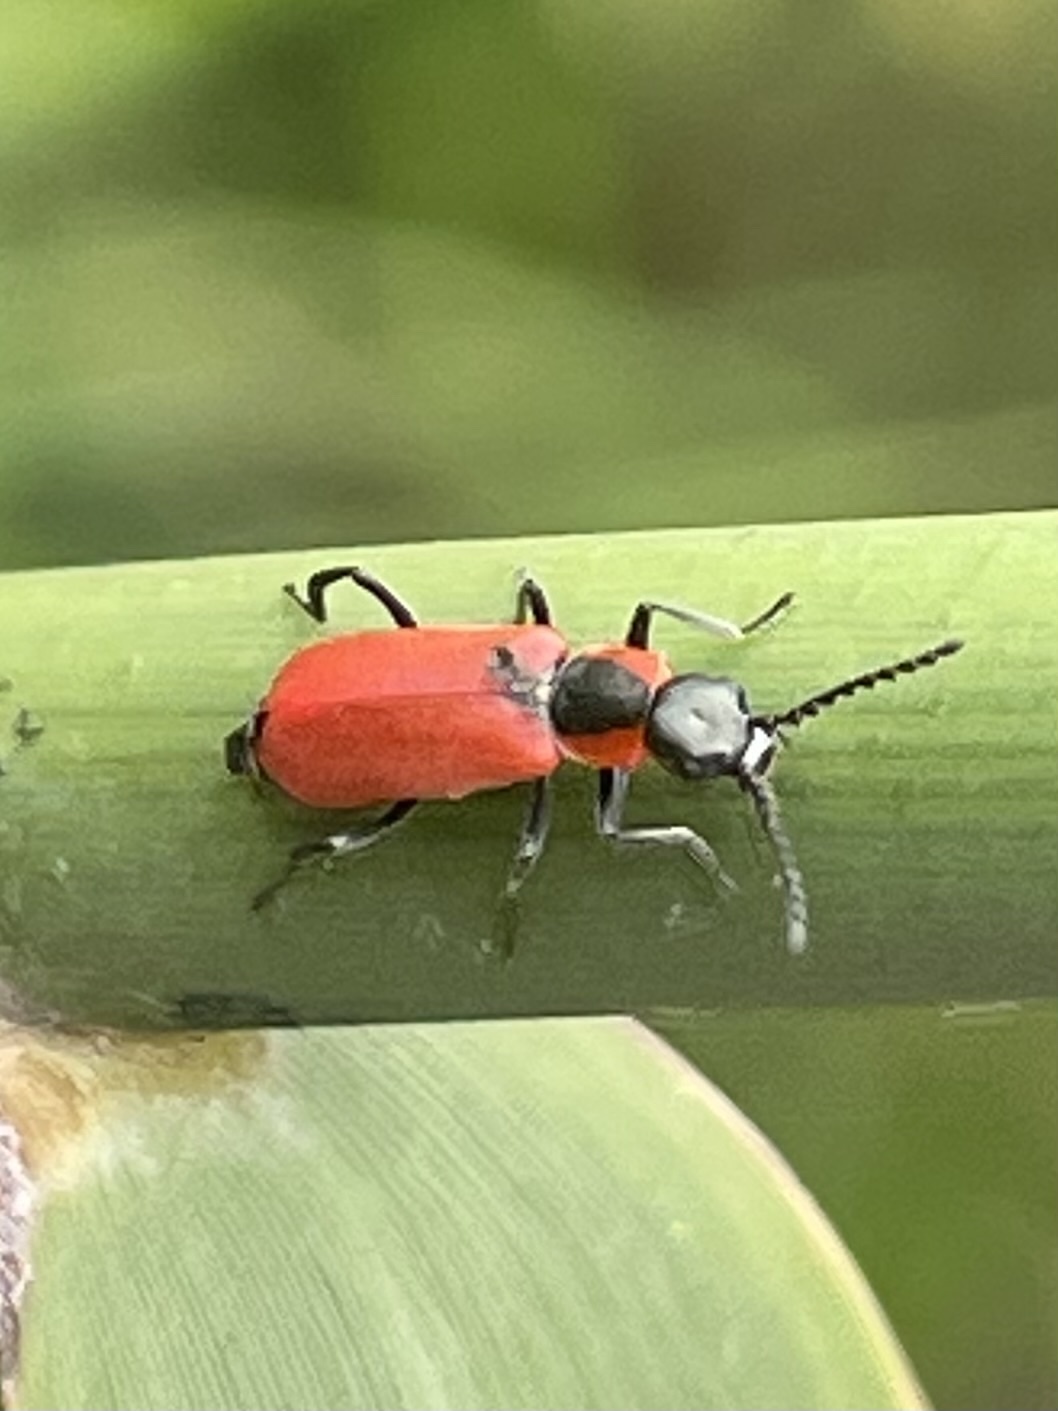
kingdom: Animalia
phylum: Arthropoda
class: Insecta
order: Coleoptera
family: Melyridae
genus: Anthocomus
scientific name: Anthocomus rufus
